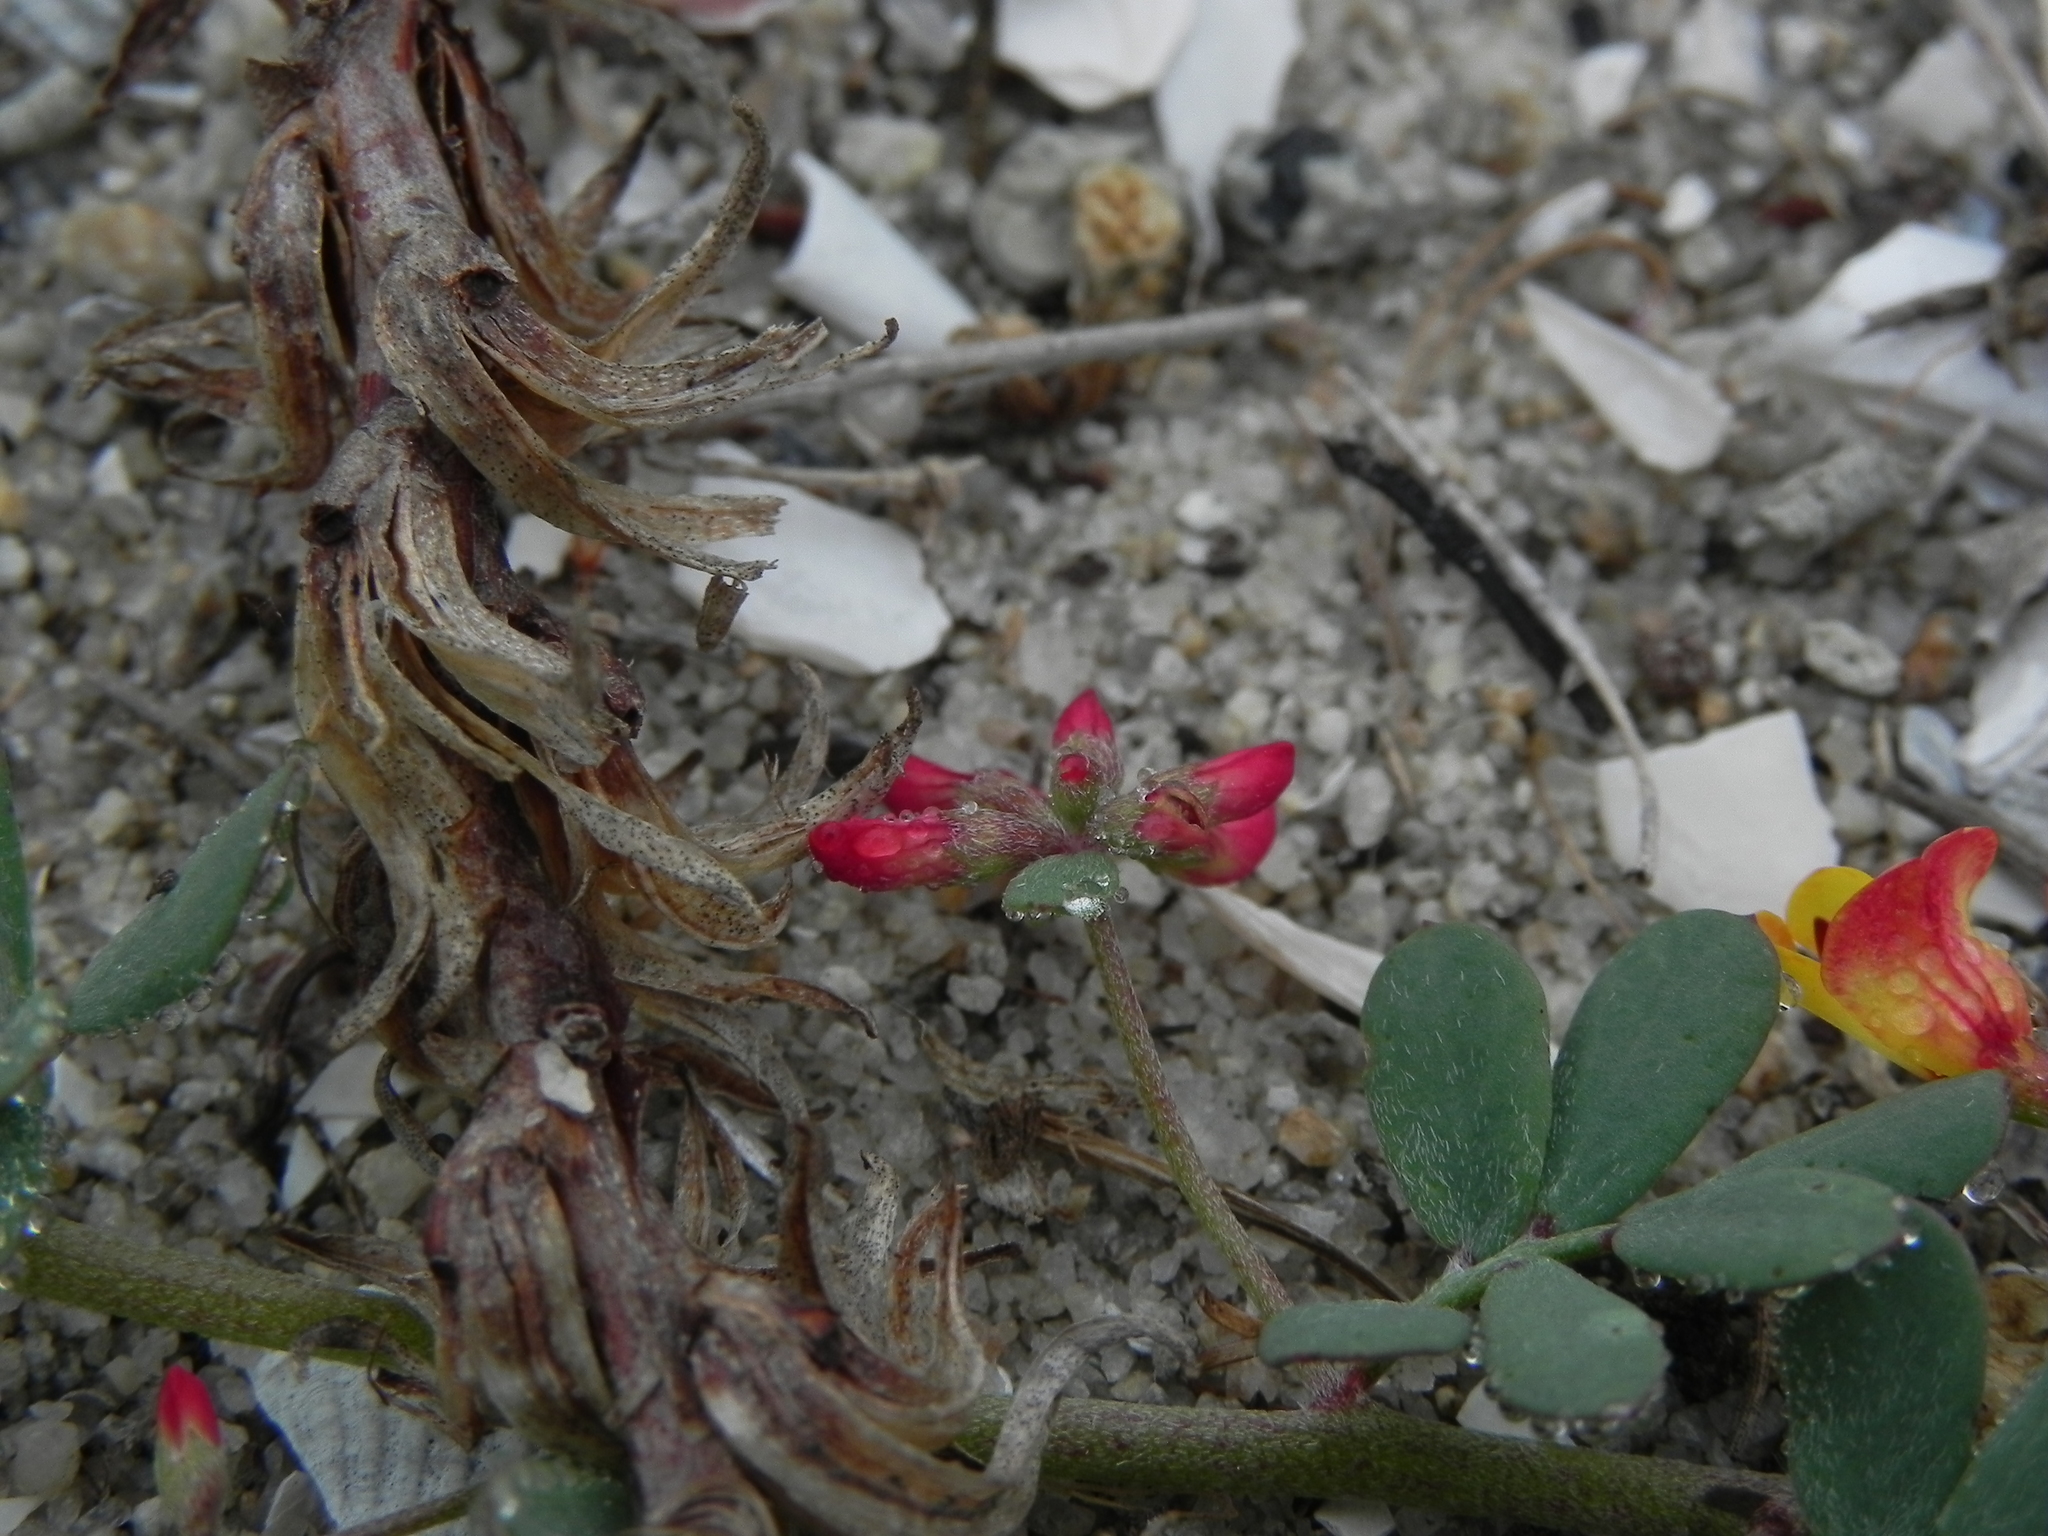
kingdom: Plantae
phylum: Tracheophyta
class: Magnoliopsida
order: Fabales
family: Fabaceae
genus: Acmispon
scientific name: Acmispon prostratus
